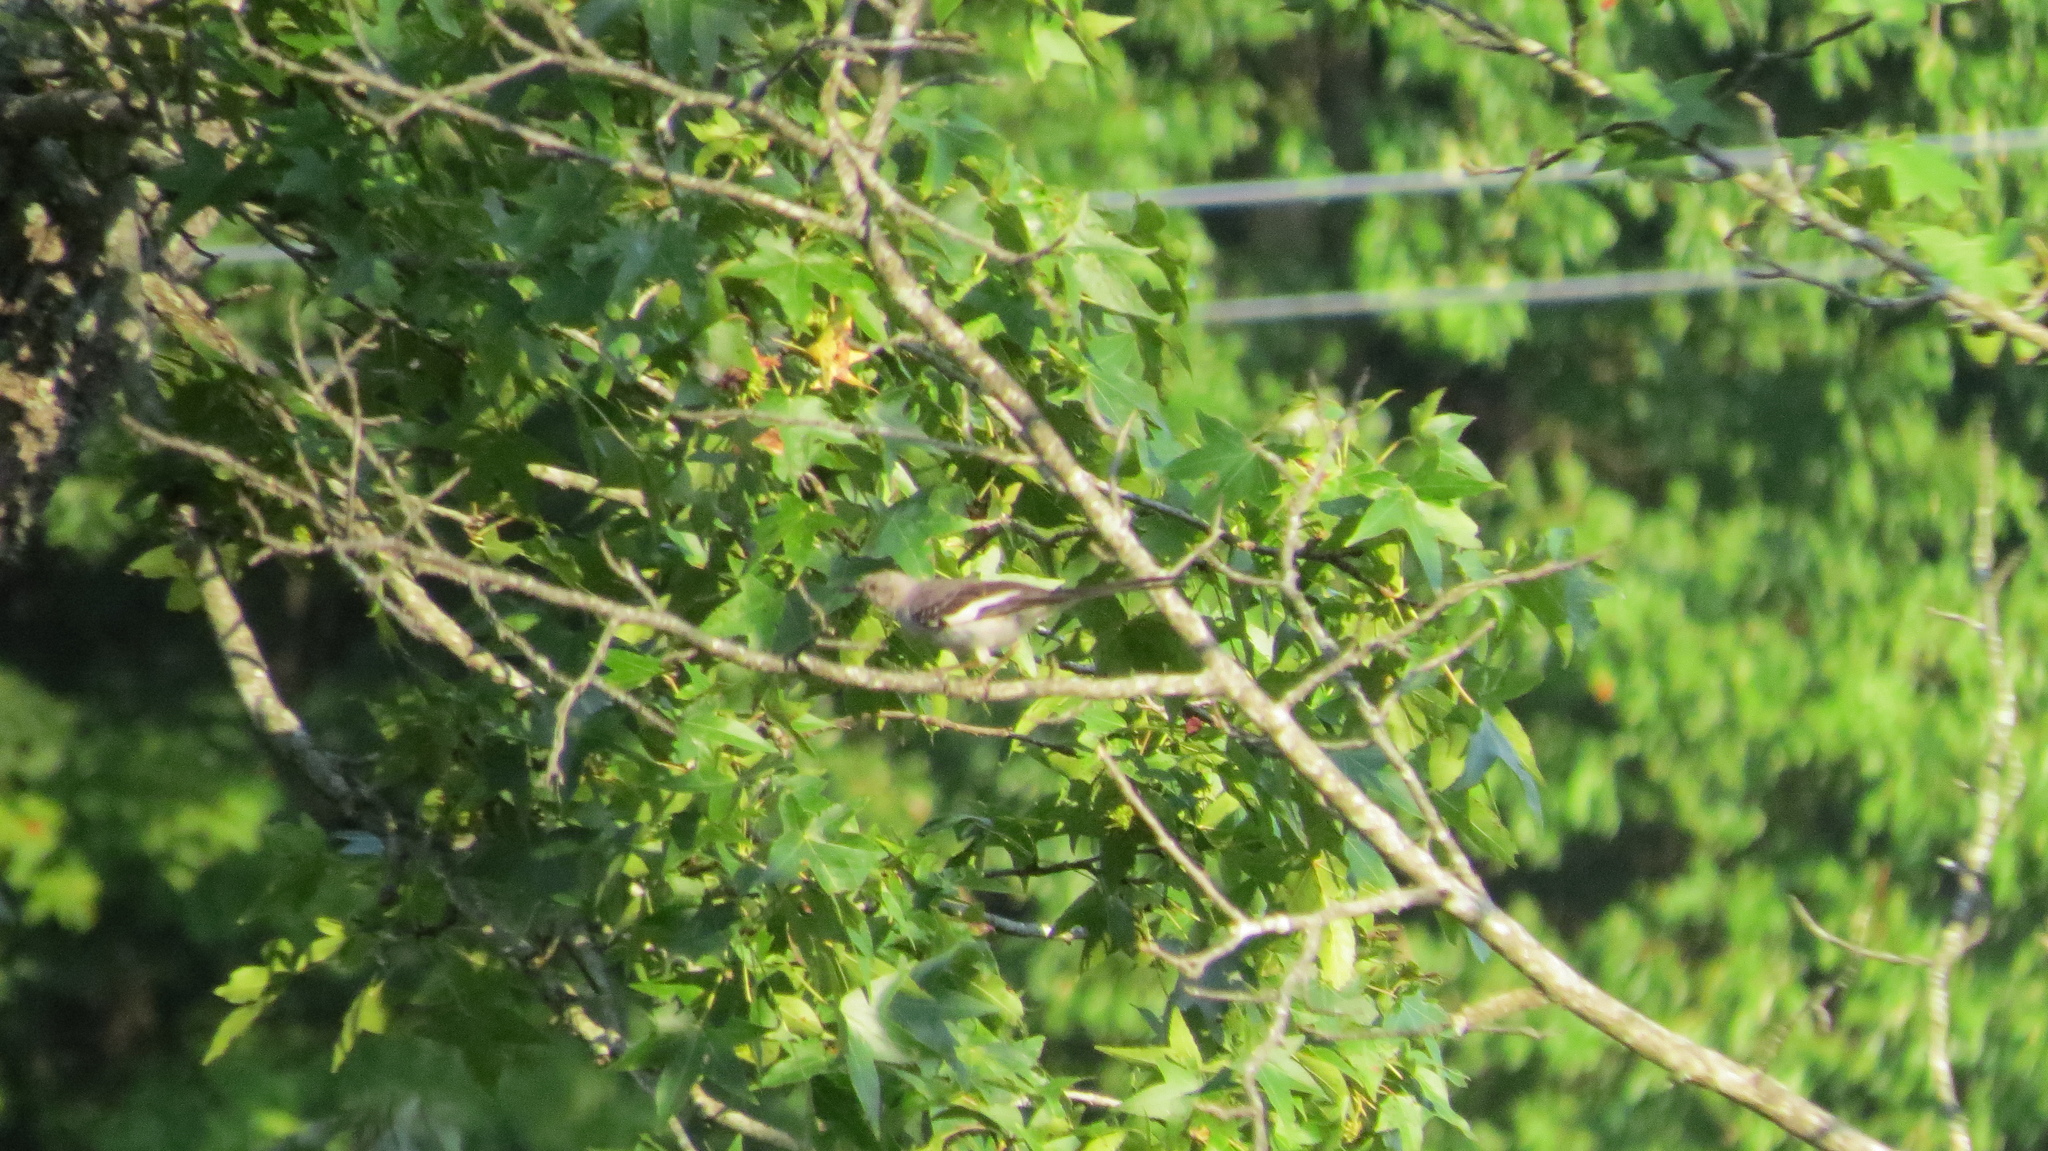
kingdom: Animalia
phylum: Chordata
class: Aves
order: Passeriformes
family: Mimidae
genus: Mimus
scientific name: Mimus polyglottos
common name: Northern mockingbird
